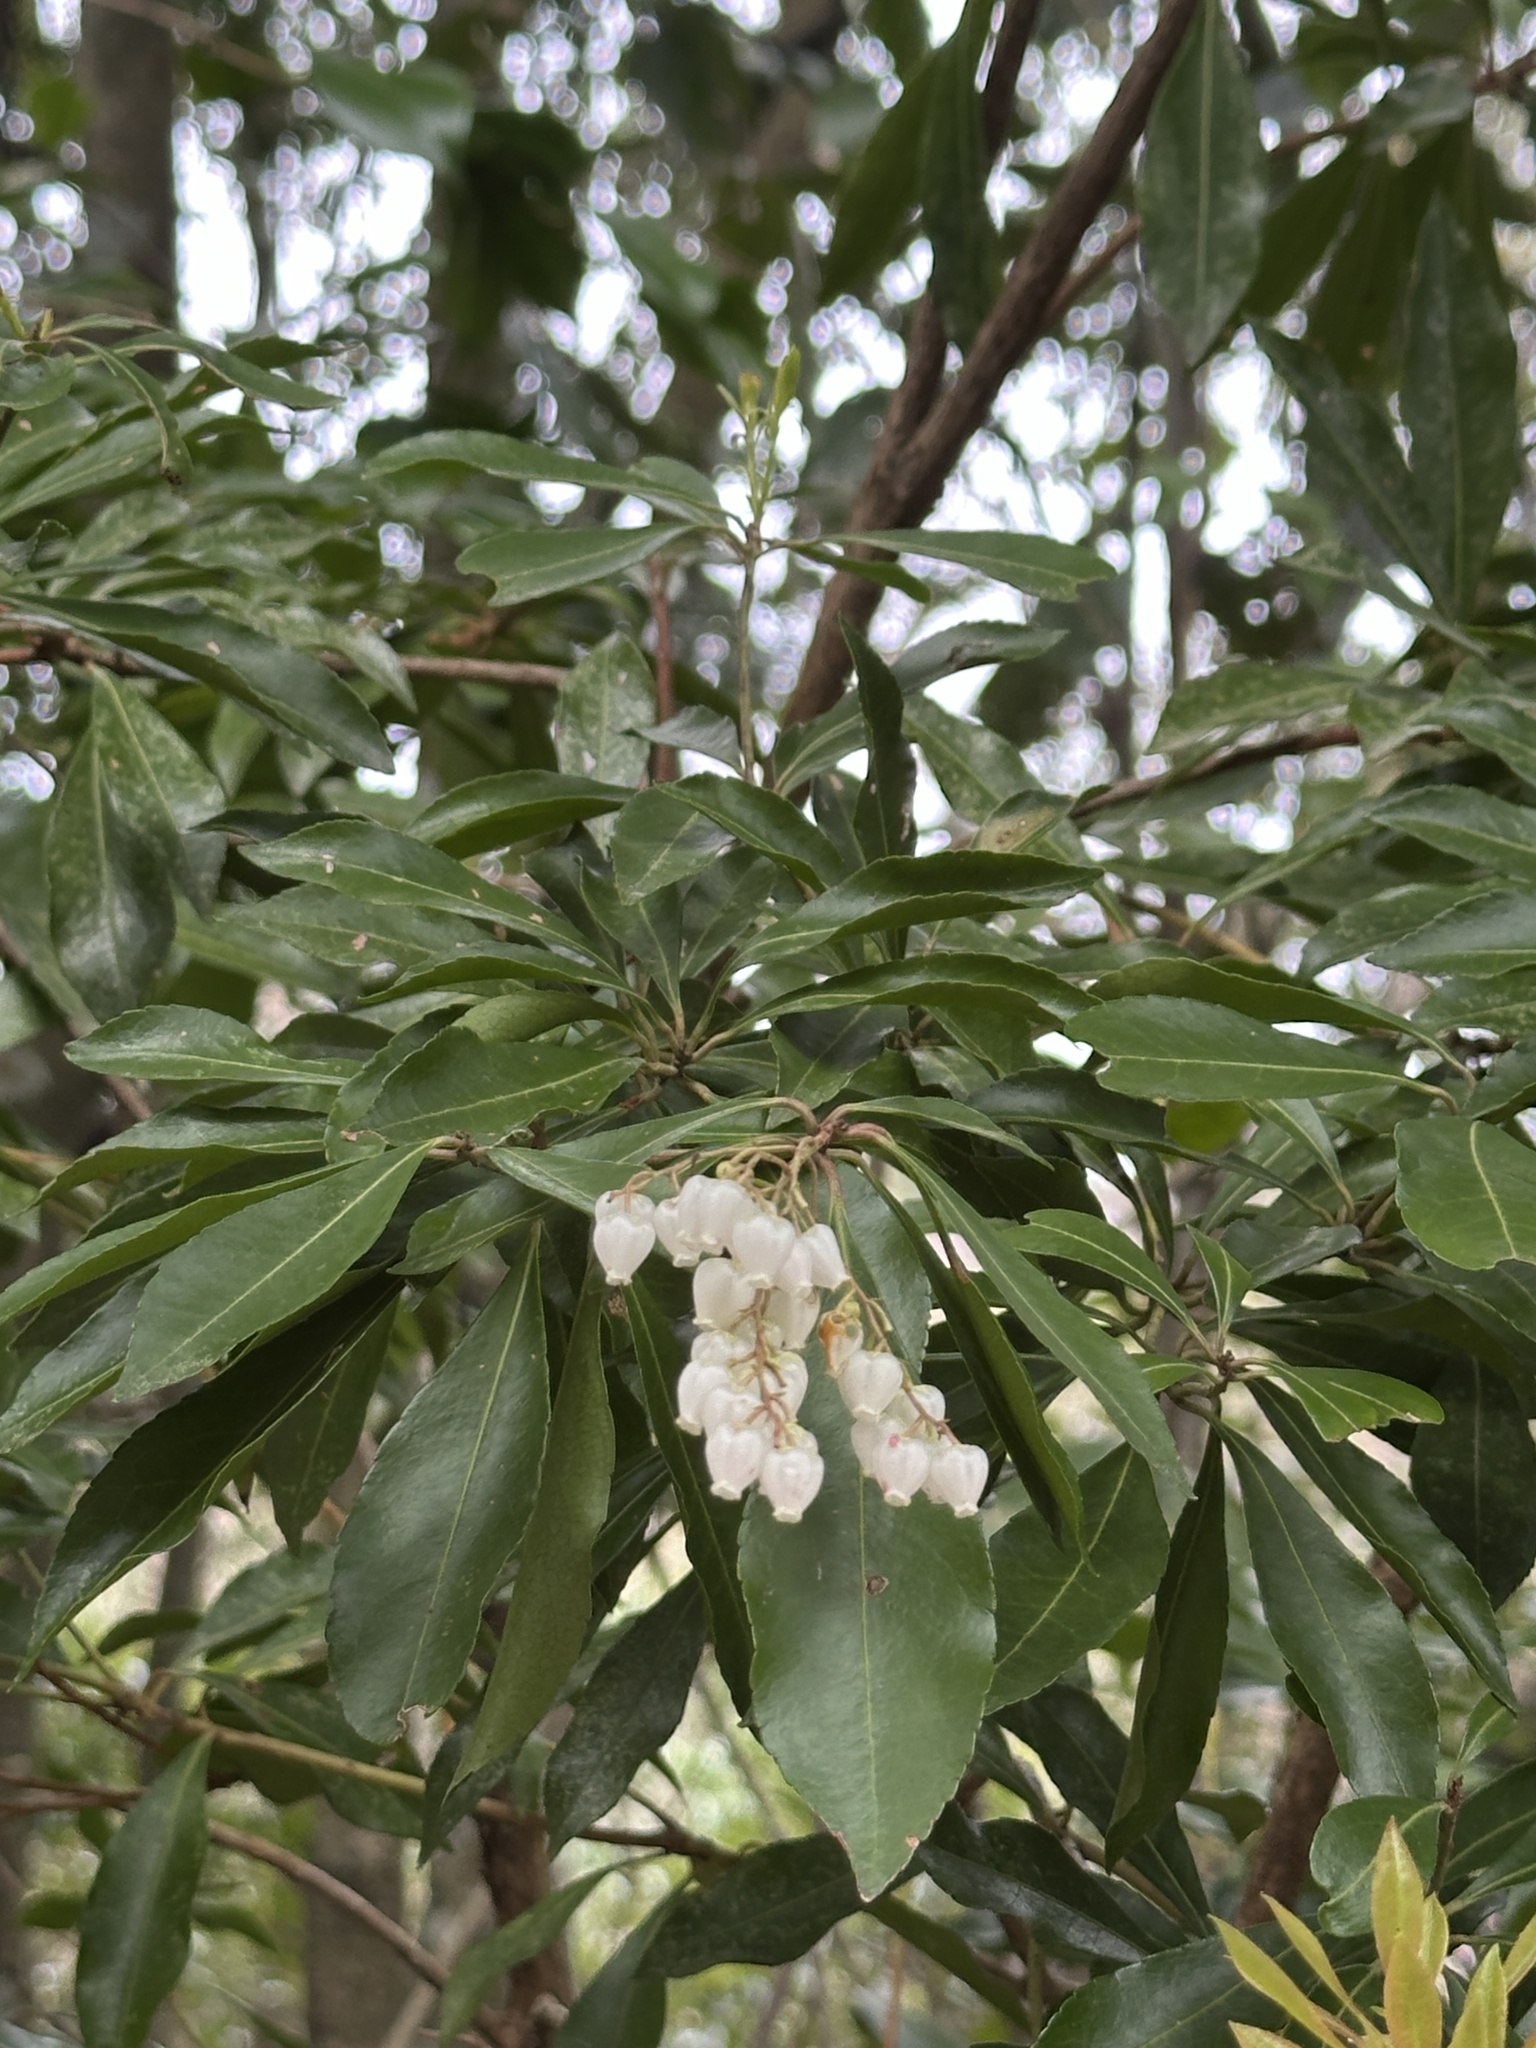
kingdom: Plantae
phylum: Tracheophyta
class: Magnoliopsida
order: Ericales
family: Ericaceae
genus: Pieris
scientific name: Pieris japonica
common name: Japanese pieris
